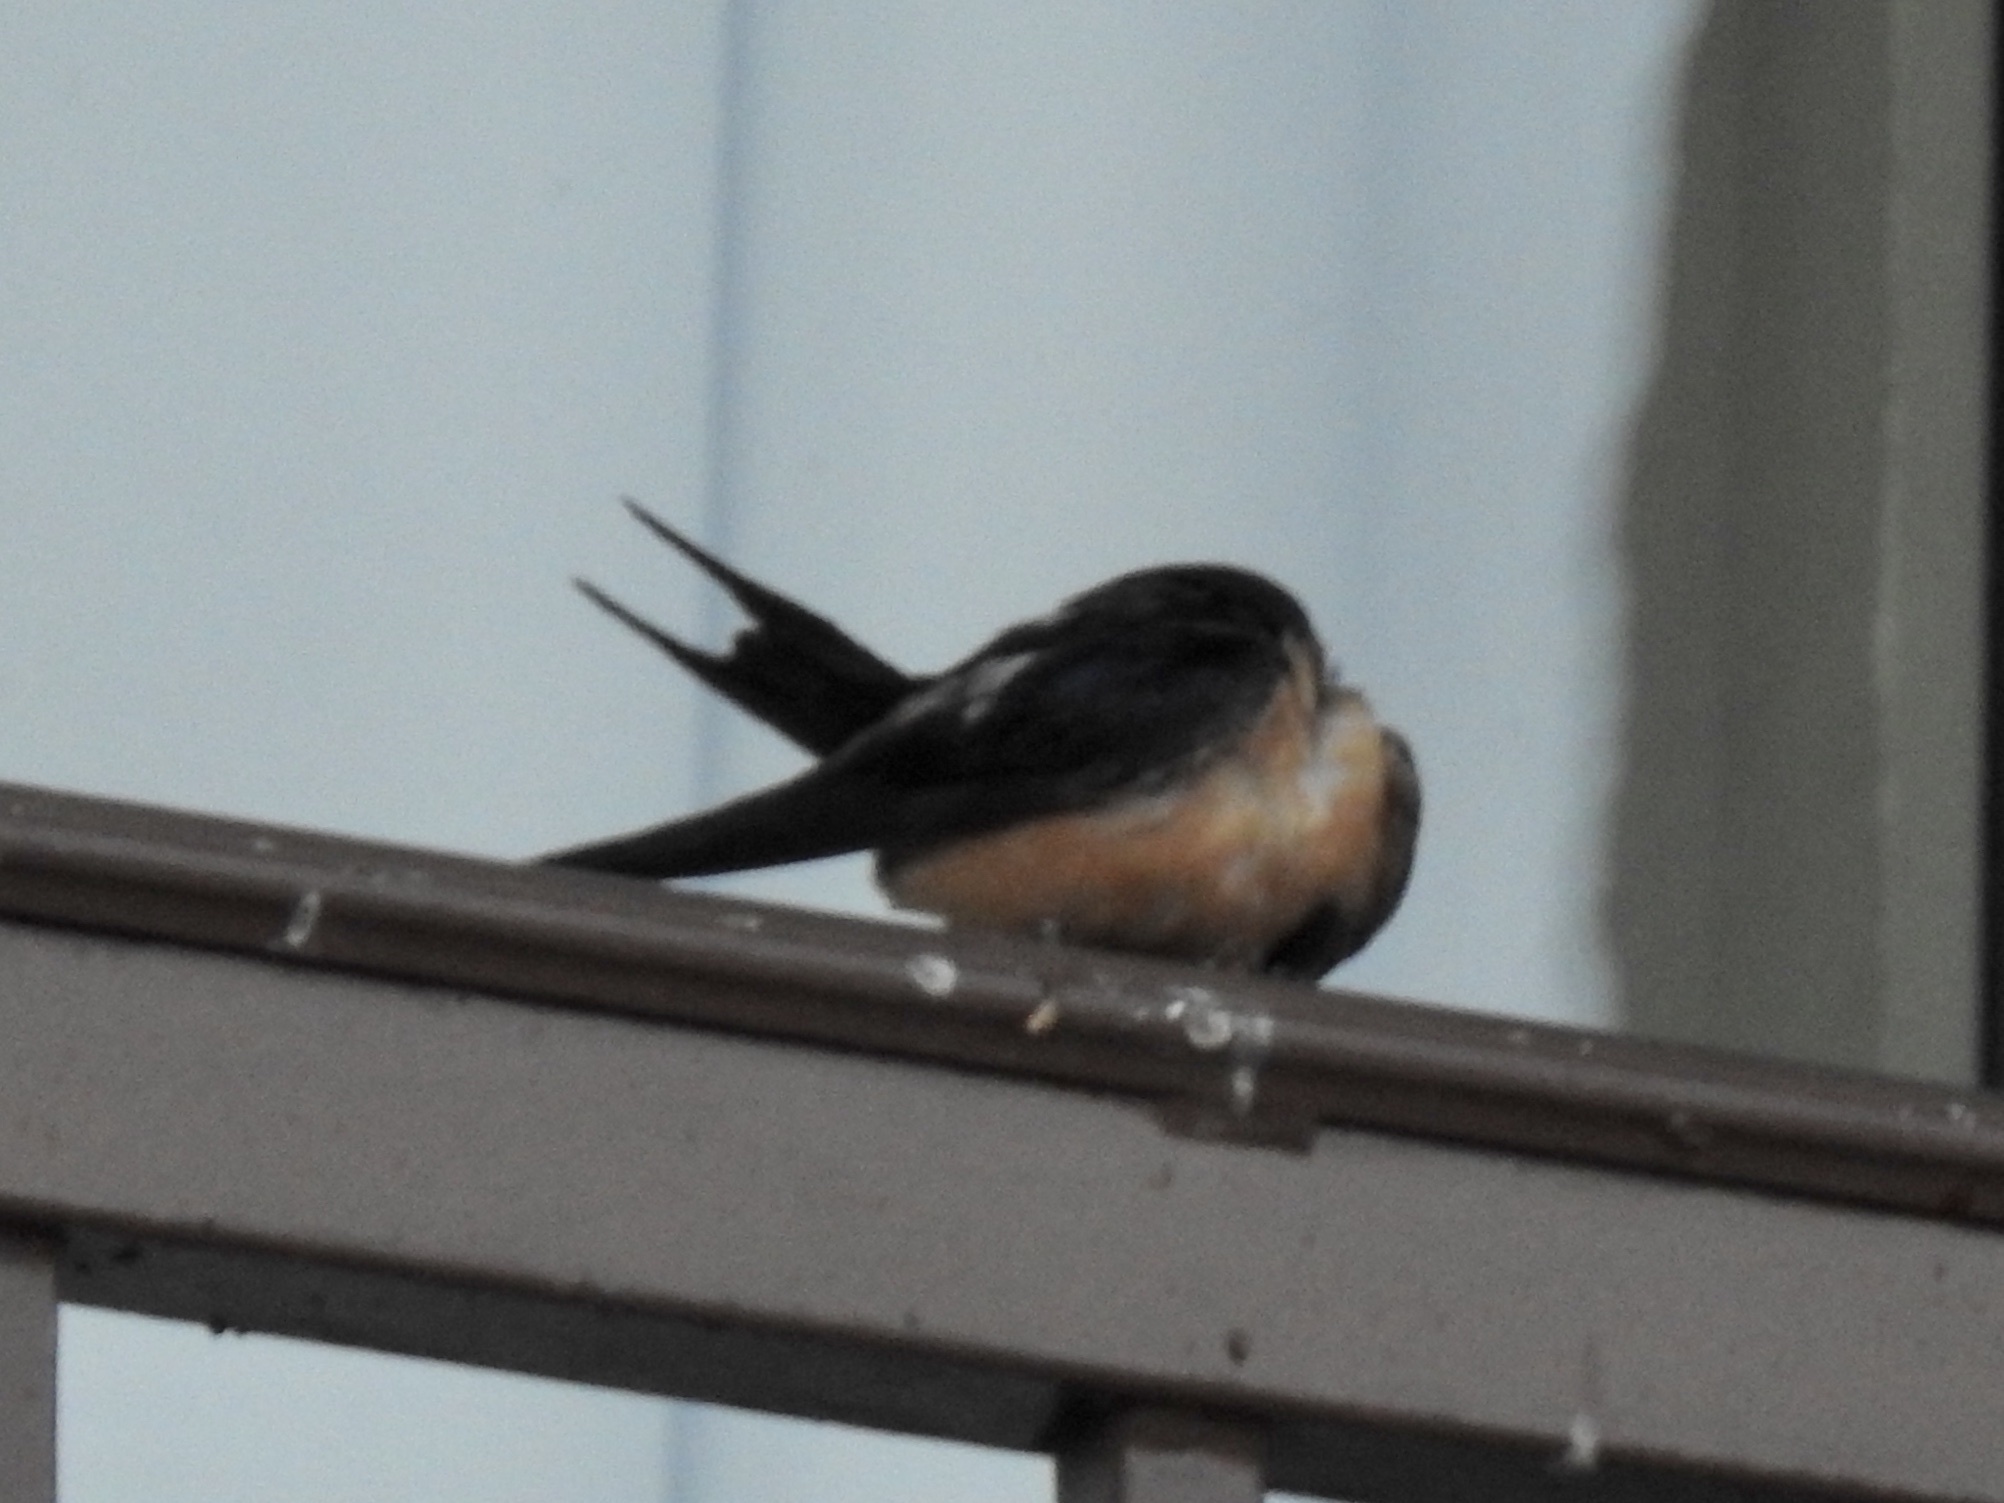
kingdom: Animalia
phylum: Chordata
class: Aves
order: Passeriformes
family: Hirundinidae
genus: Hirundo
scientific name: Hirundo rustica
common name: Barn swallow
